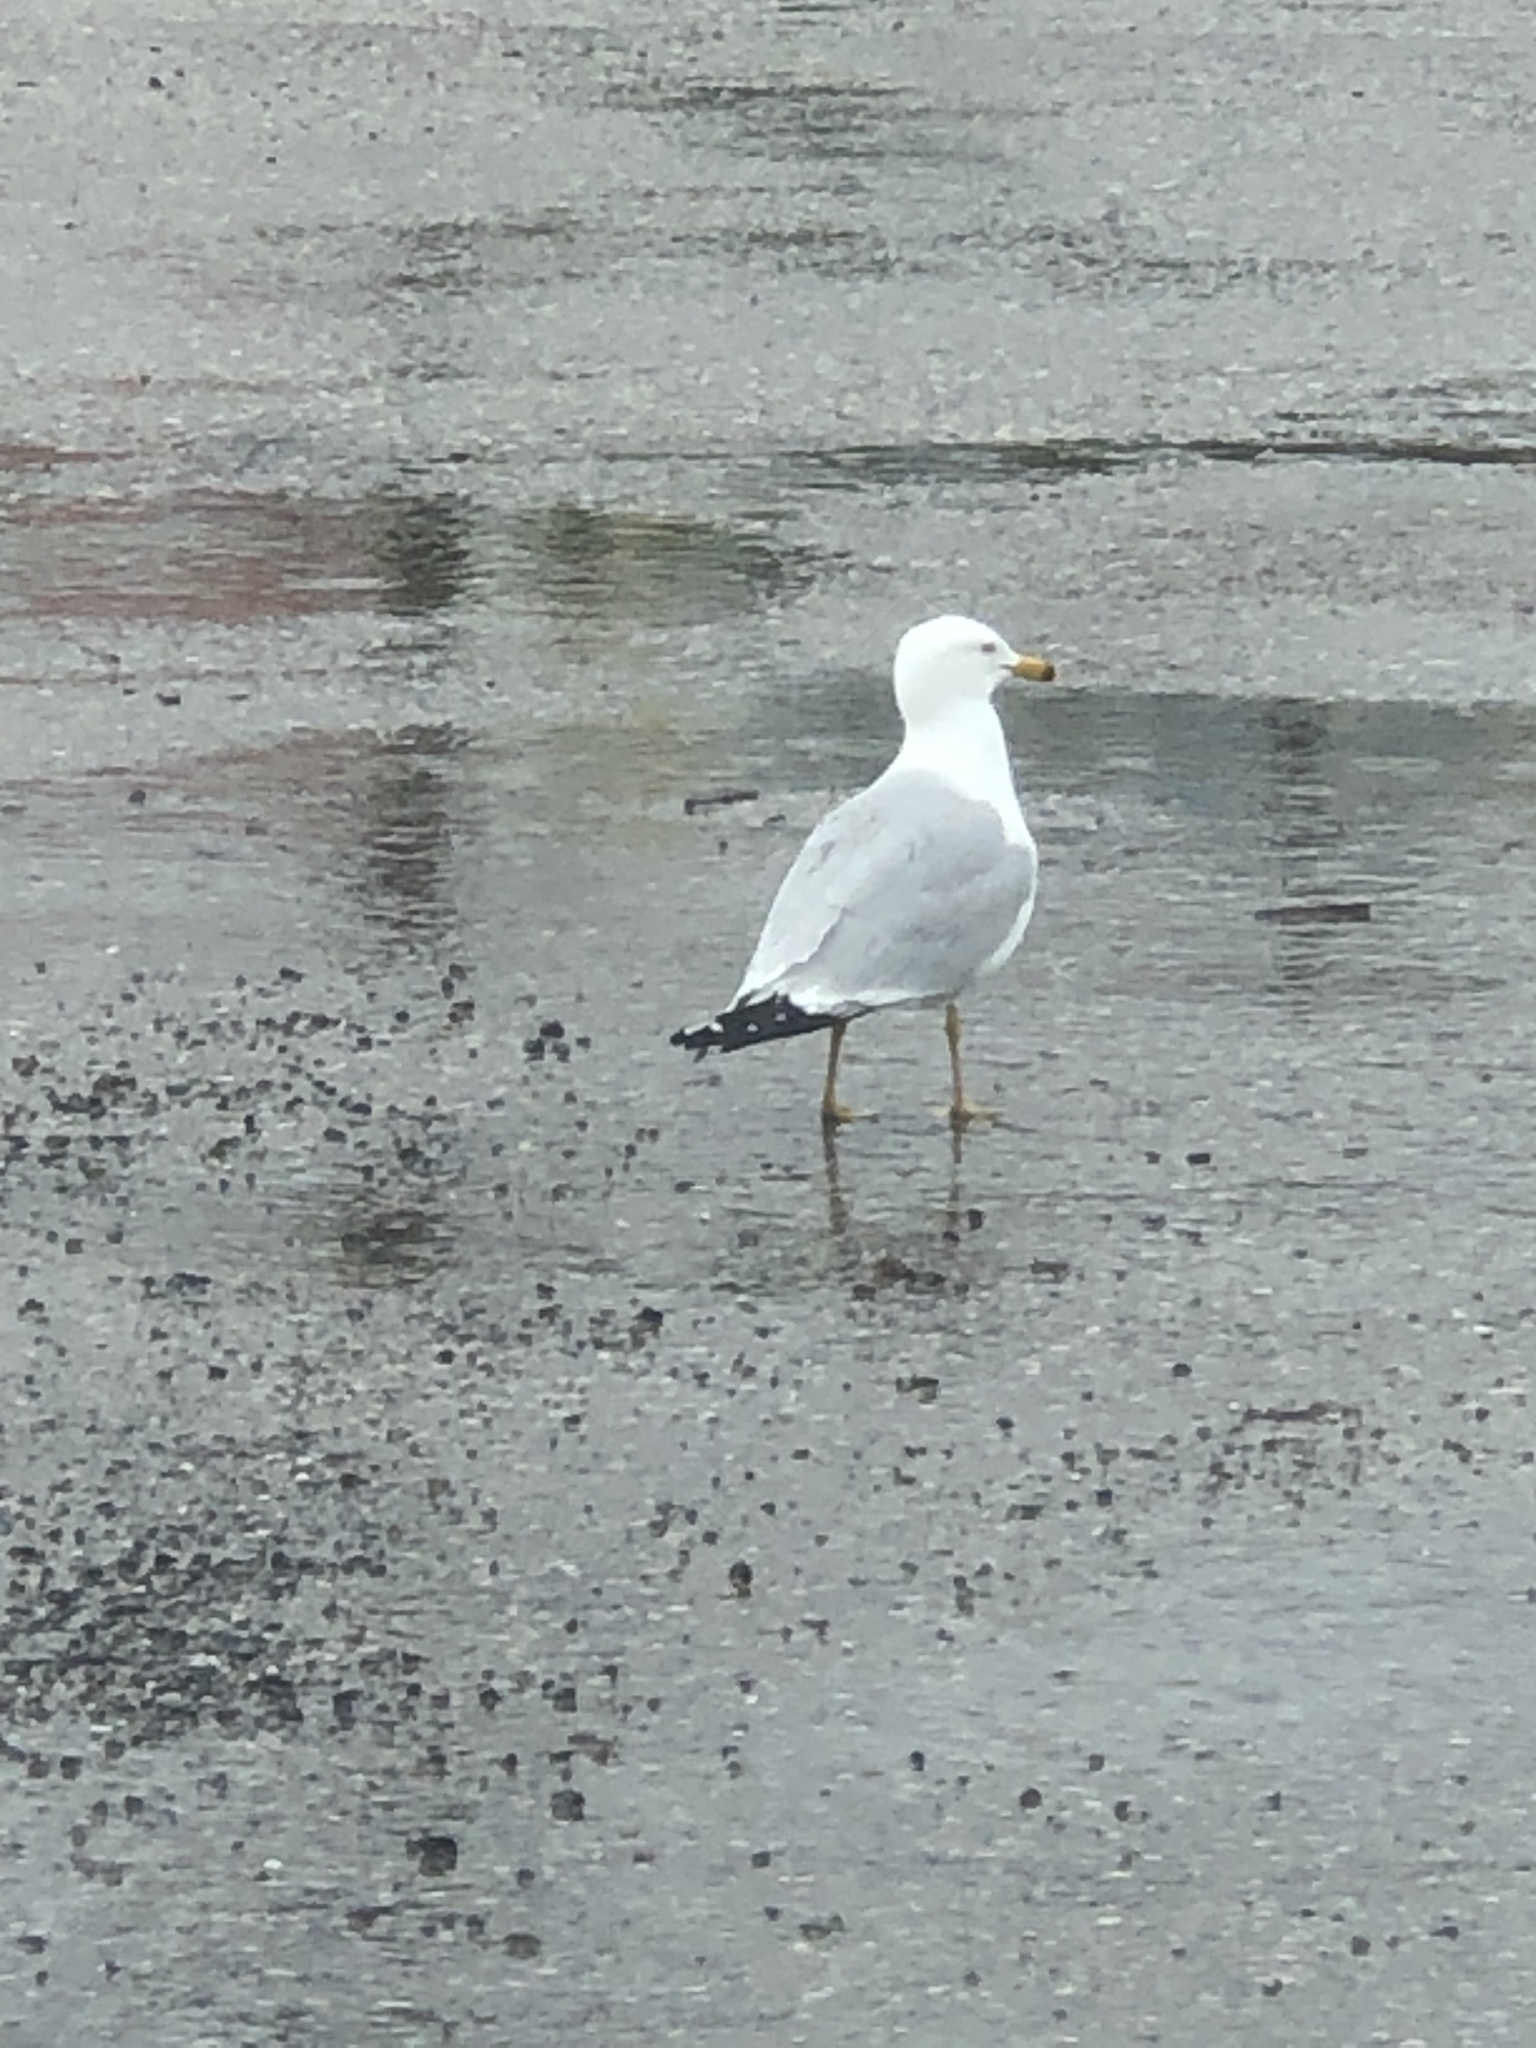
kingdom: Animalia
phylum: Chordata
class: Aves
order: Charadriiformes
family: Laridae
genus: Larus
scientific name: Larus delawarensis
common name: Ring-billed gull
